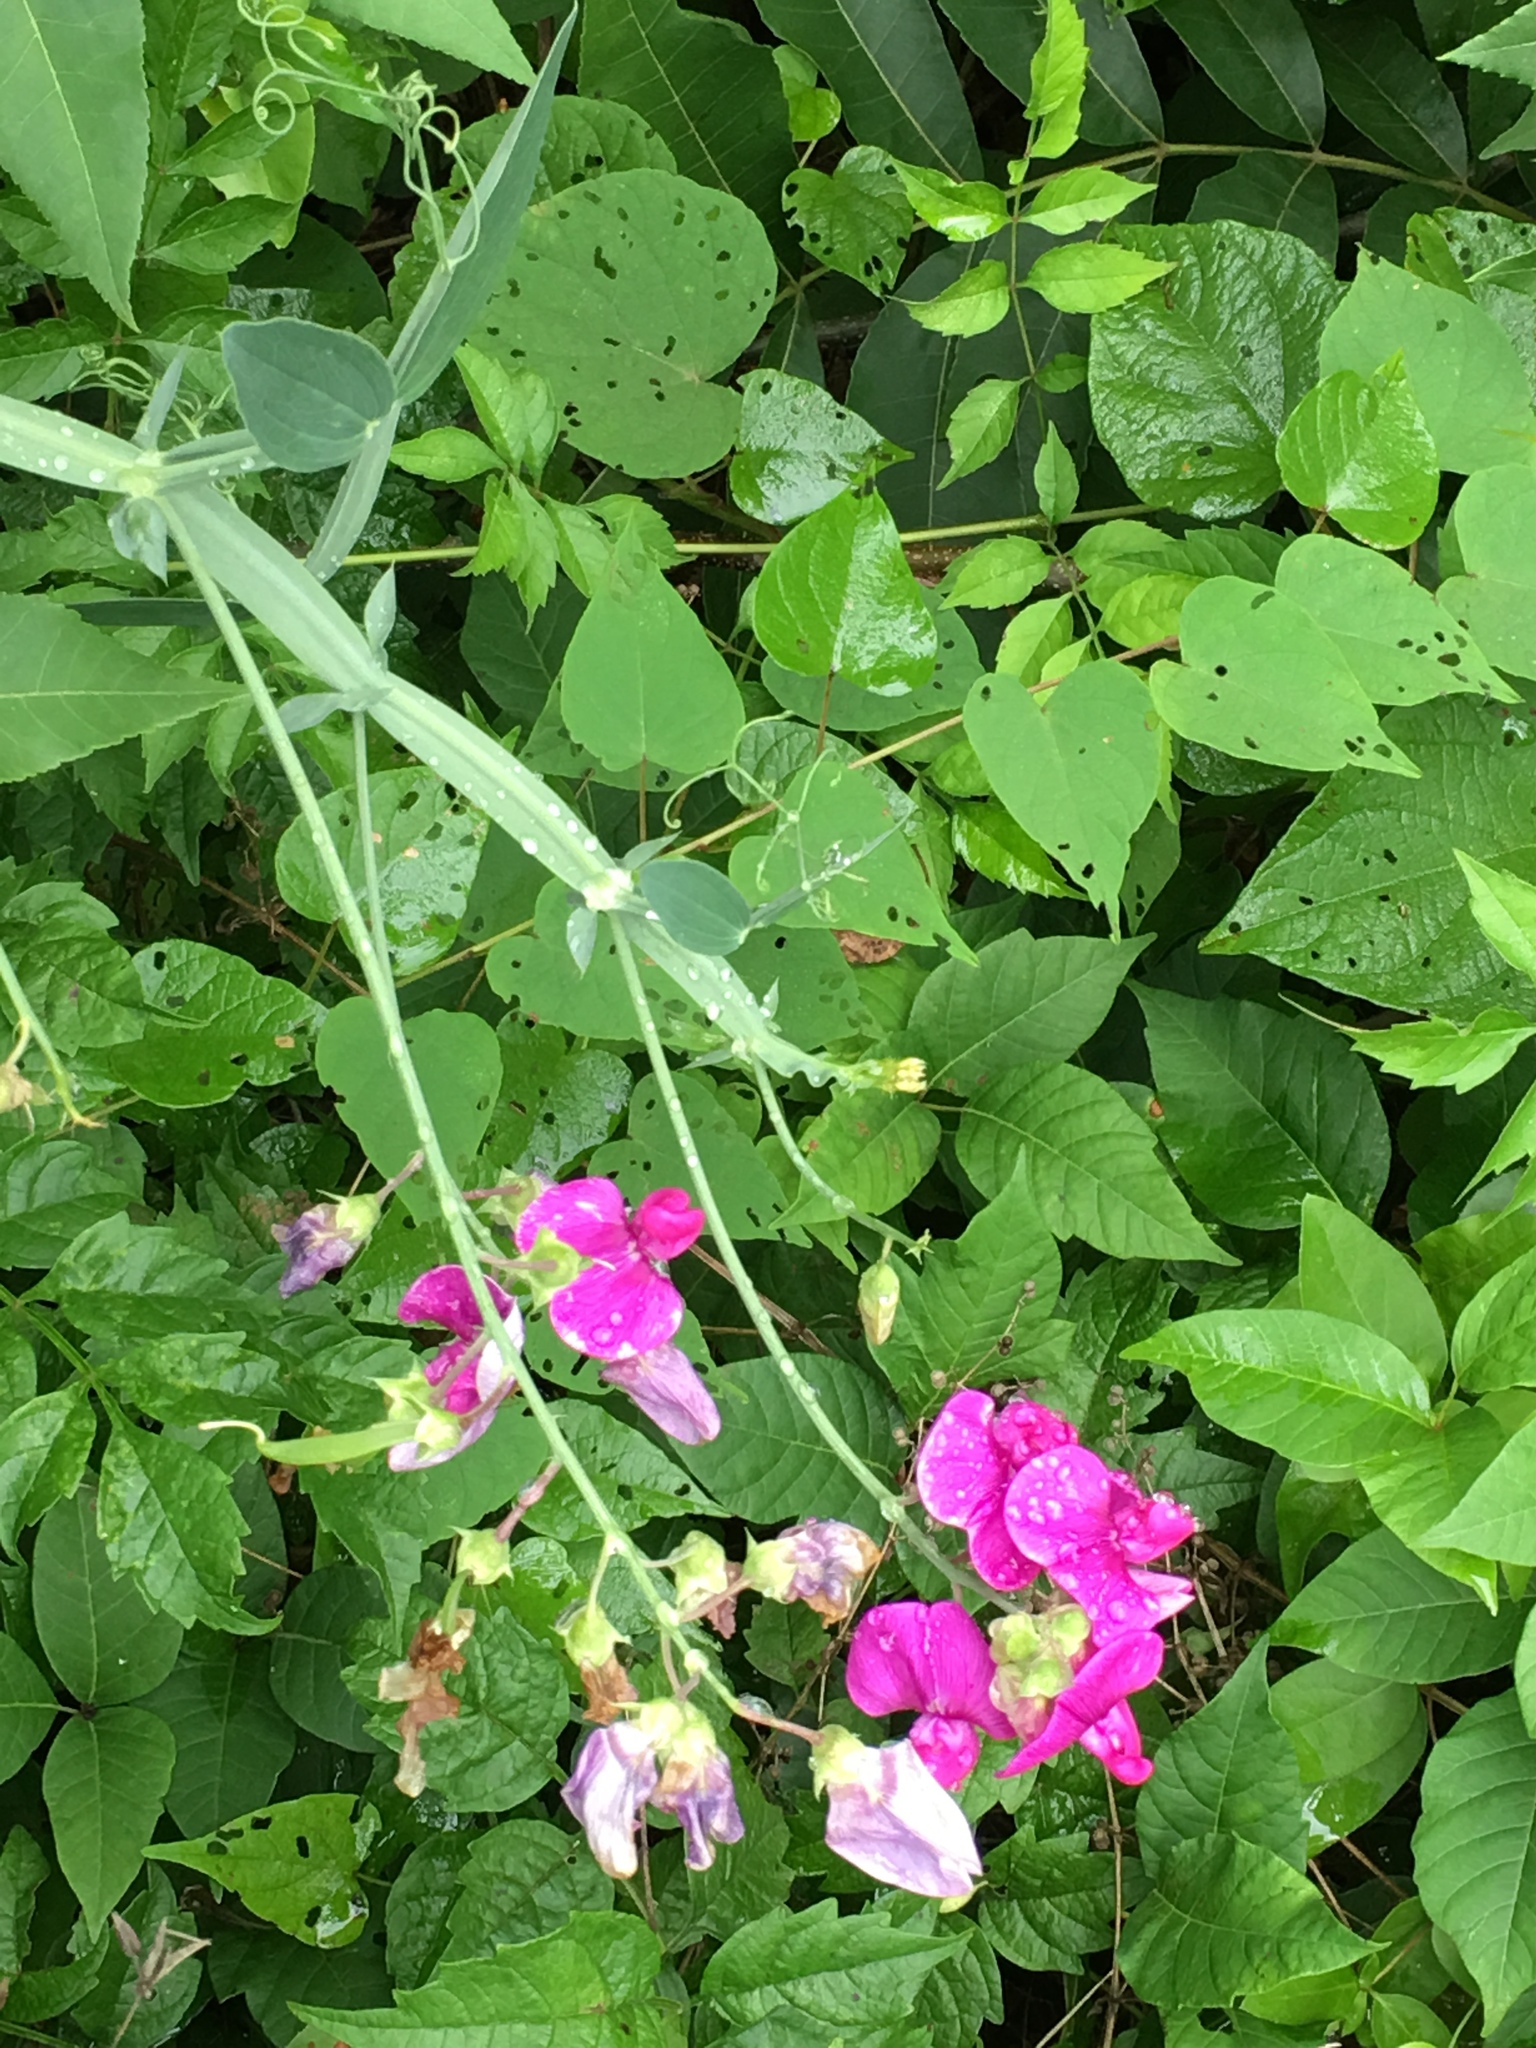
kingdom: Plantae
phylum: Tracheophyta
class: Magnoliopsida
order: Fabales
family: Fabaceae
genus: Lathyrus
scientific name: Lathyrus latifolius
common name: Perennial pea
